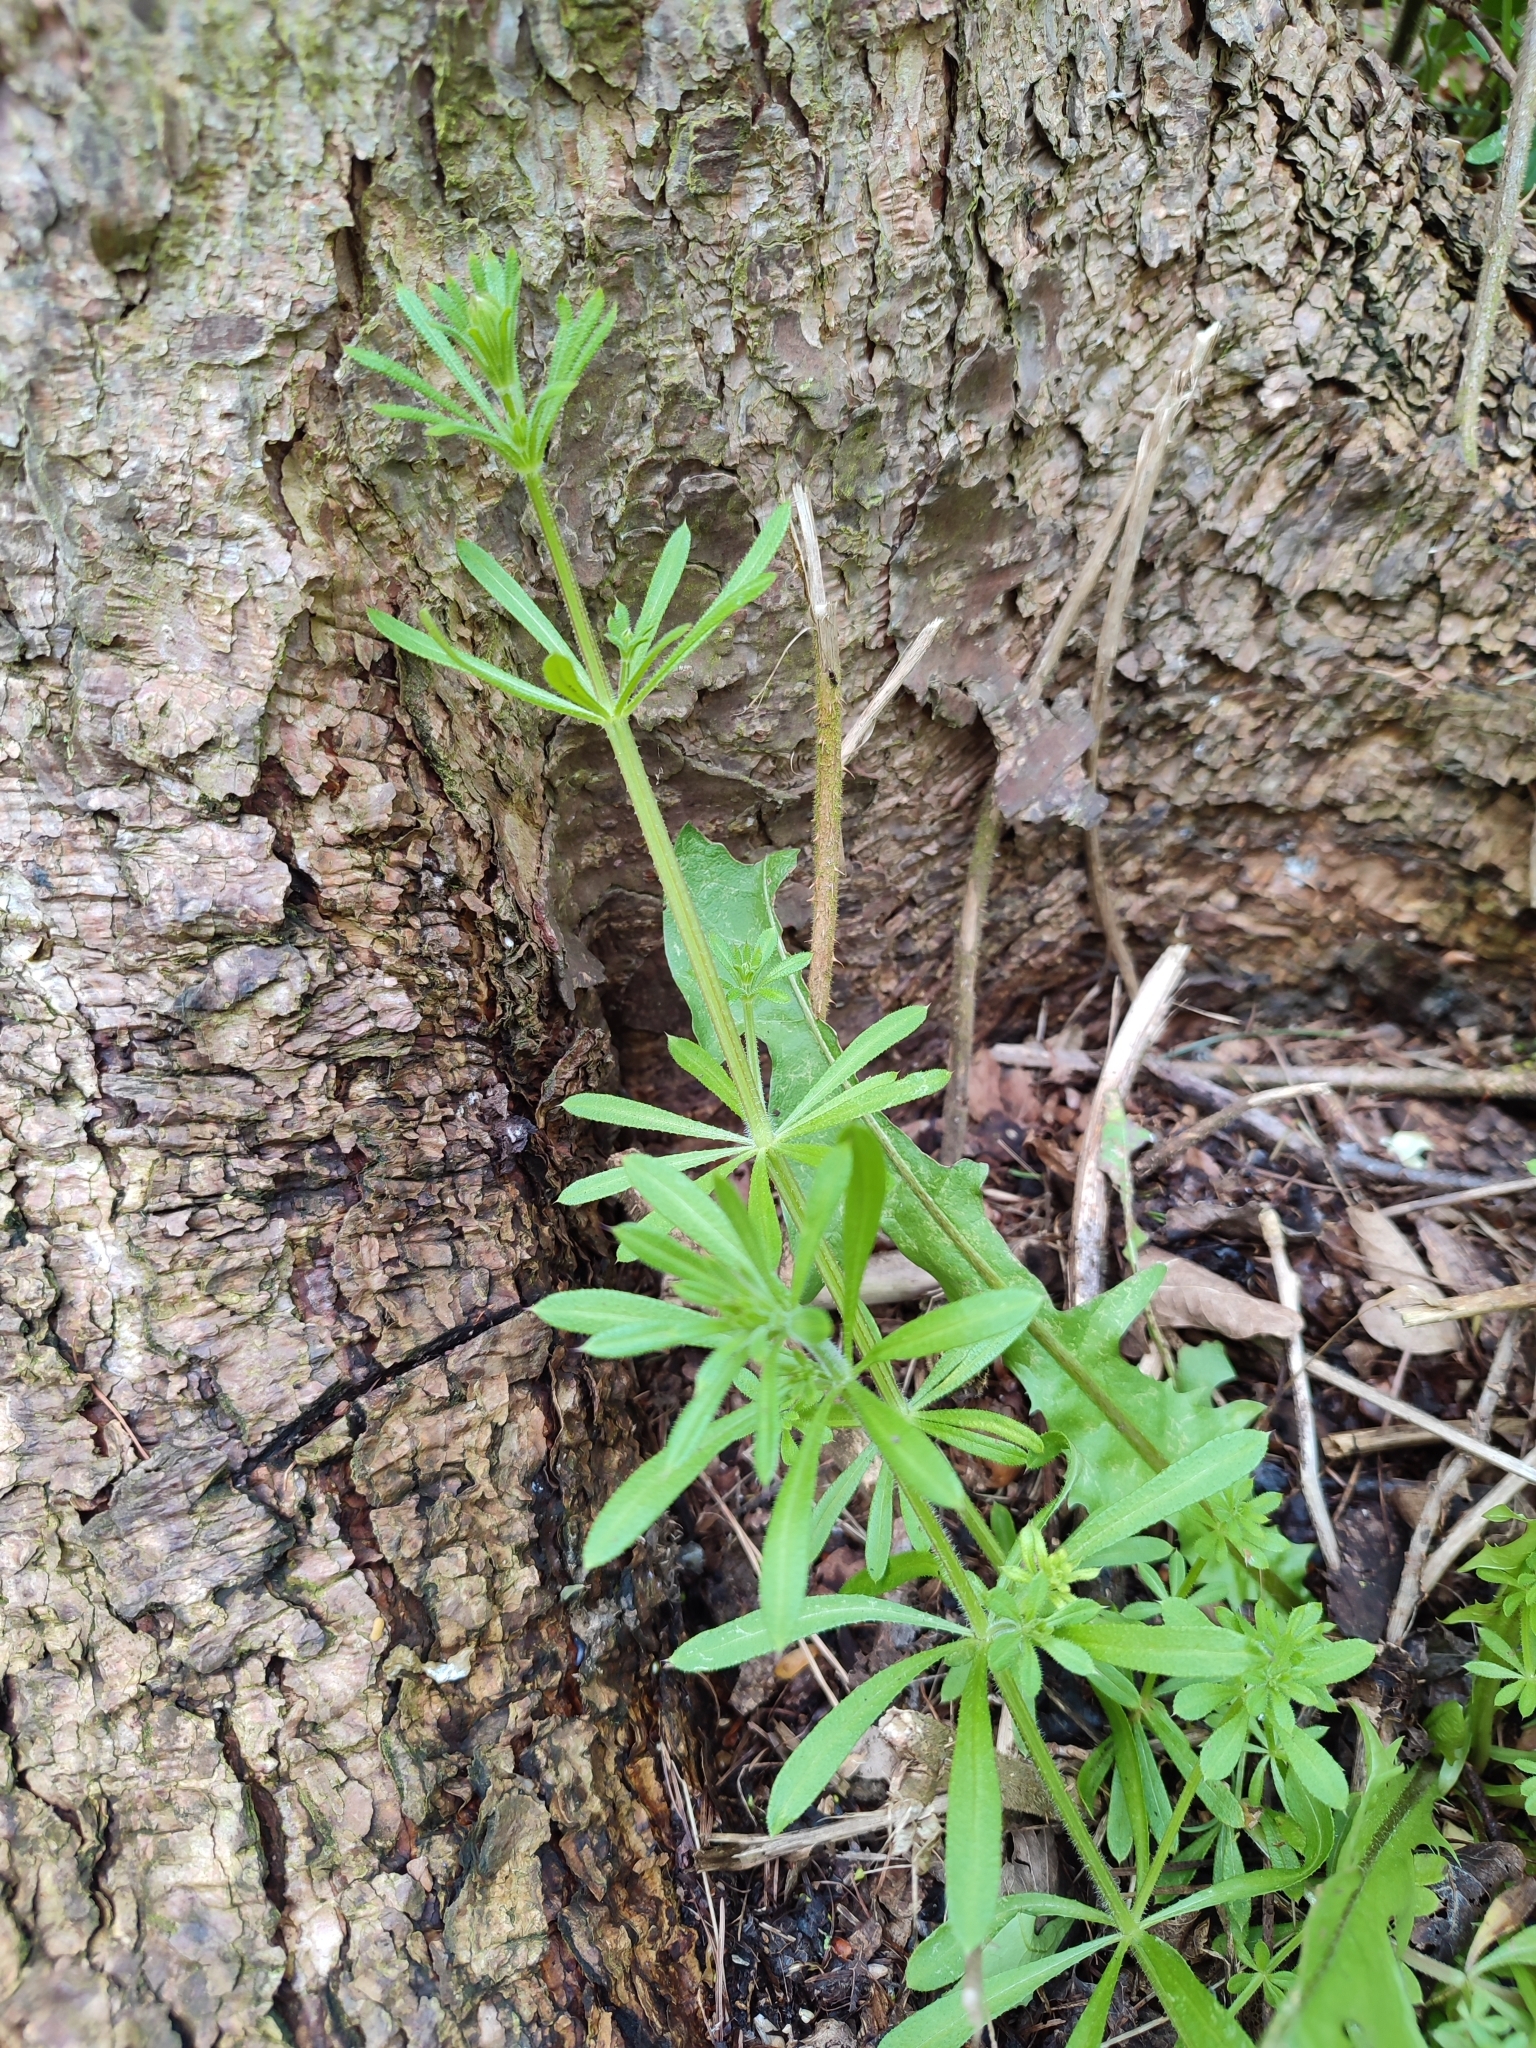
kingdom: Plantae
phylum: Tracheophyta
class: Magnoliopsida
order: Gentianales
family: Rubiaceae
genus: Galium
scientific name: Galium aparine
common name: Cleavers
